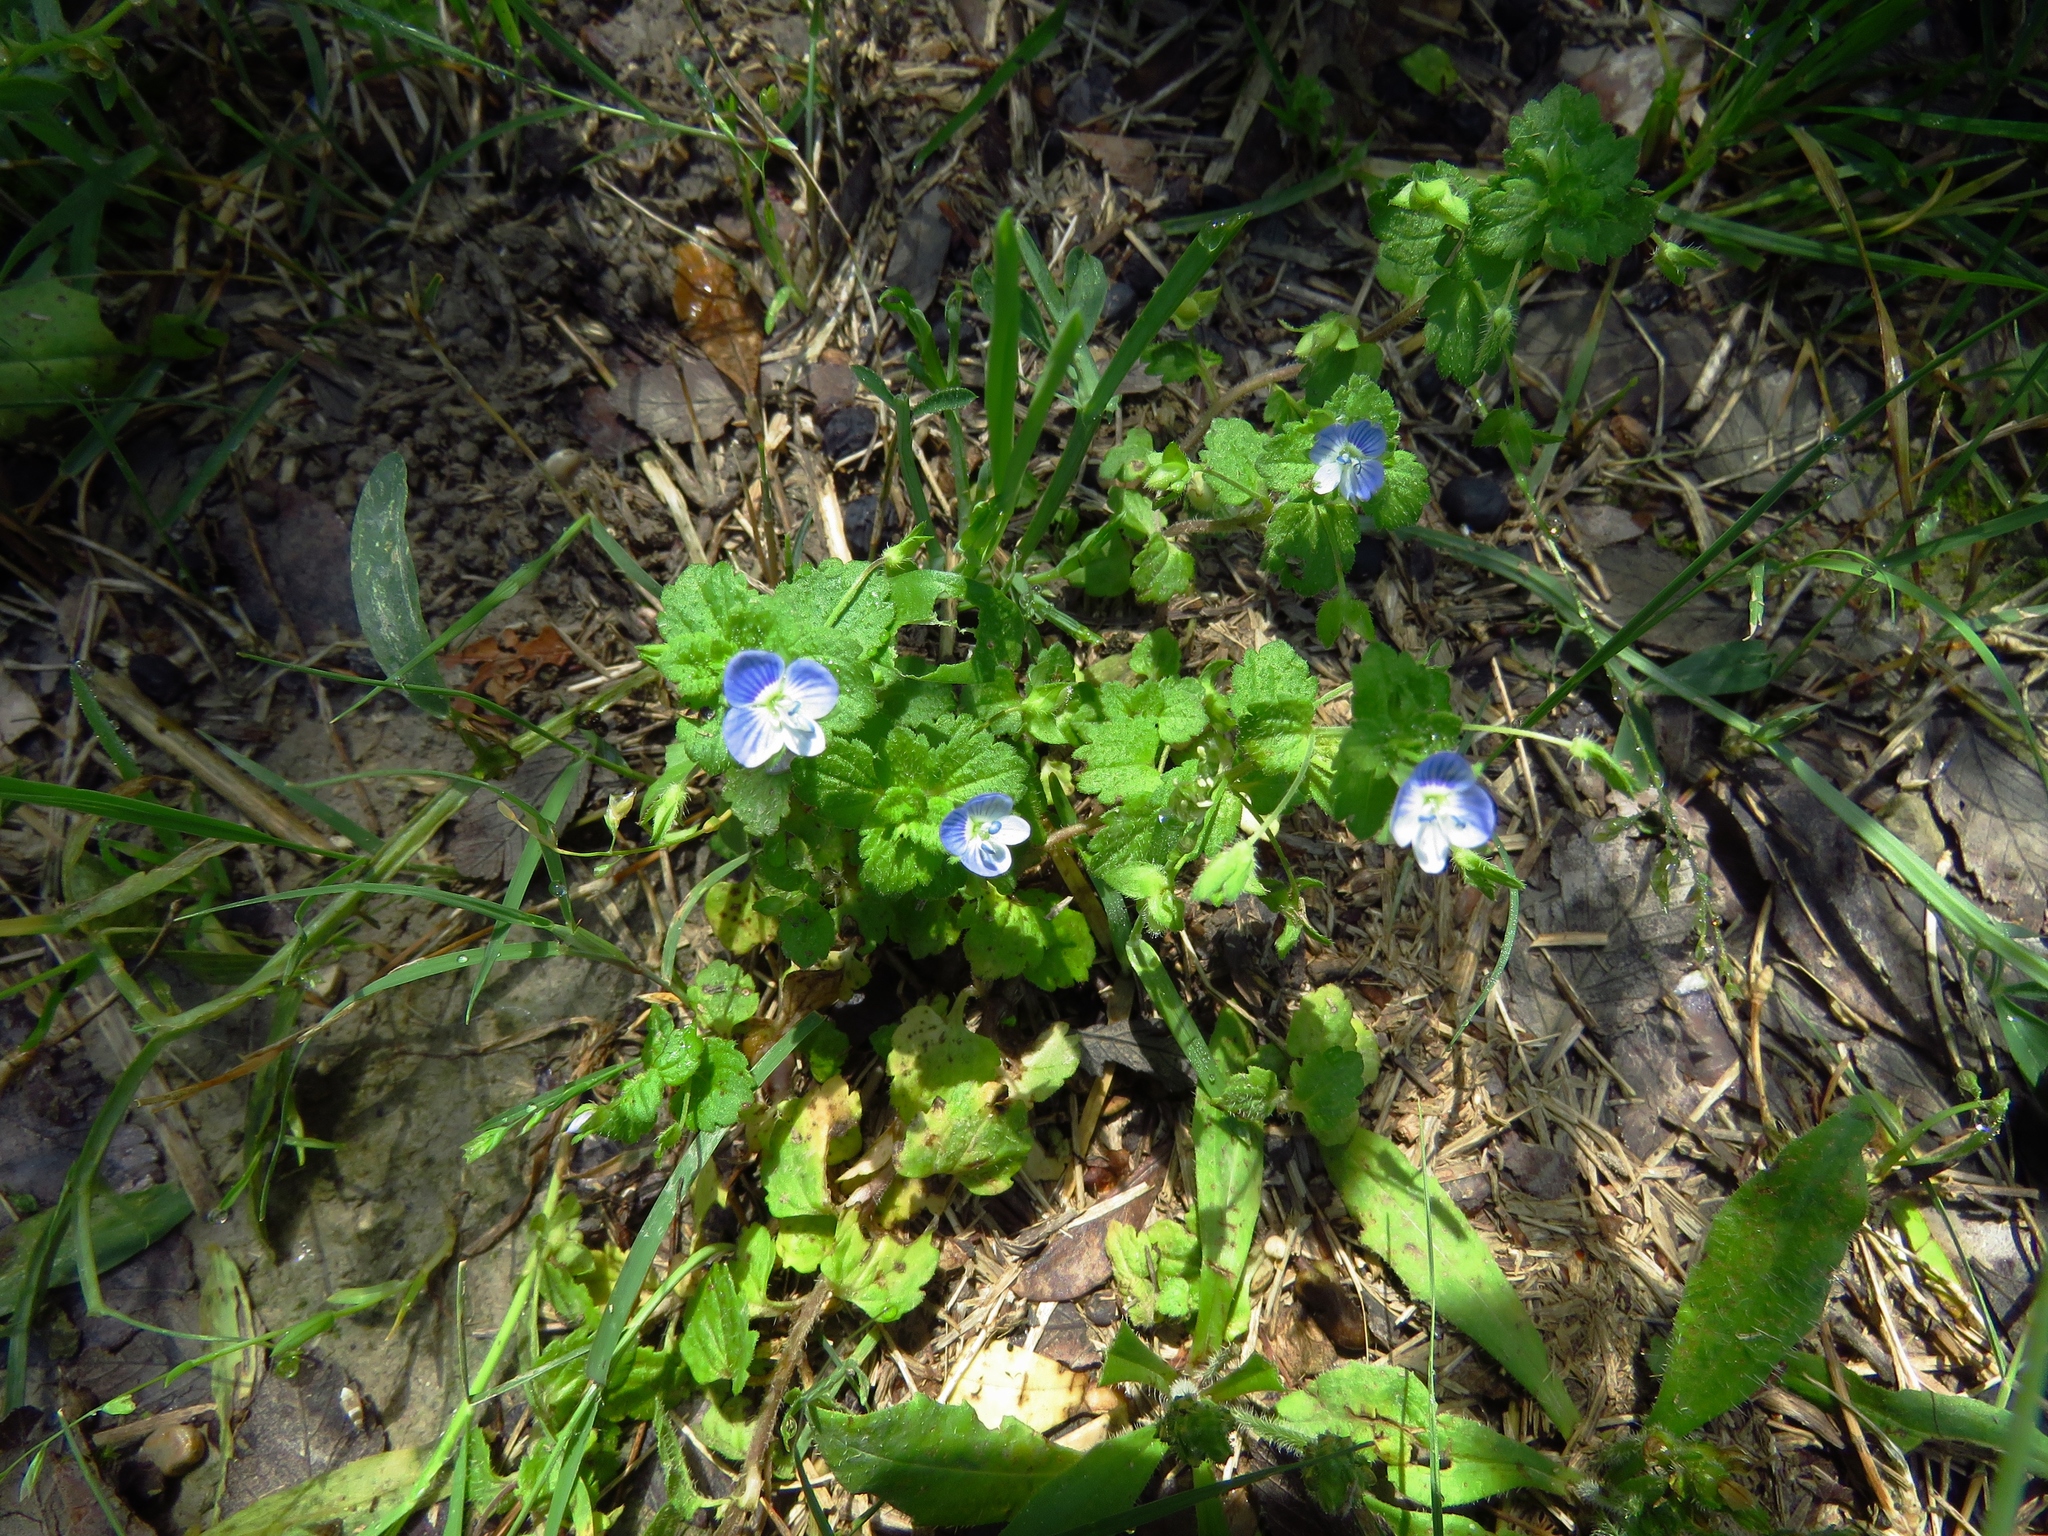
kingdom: Plantae
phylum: Tracheophyta
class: Magnoliopsida
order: Lamiales
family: Plantaginaceae
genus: Veronica
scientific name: Veronica persica
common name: Common field-speedwell
